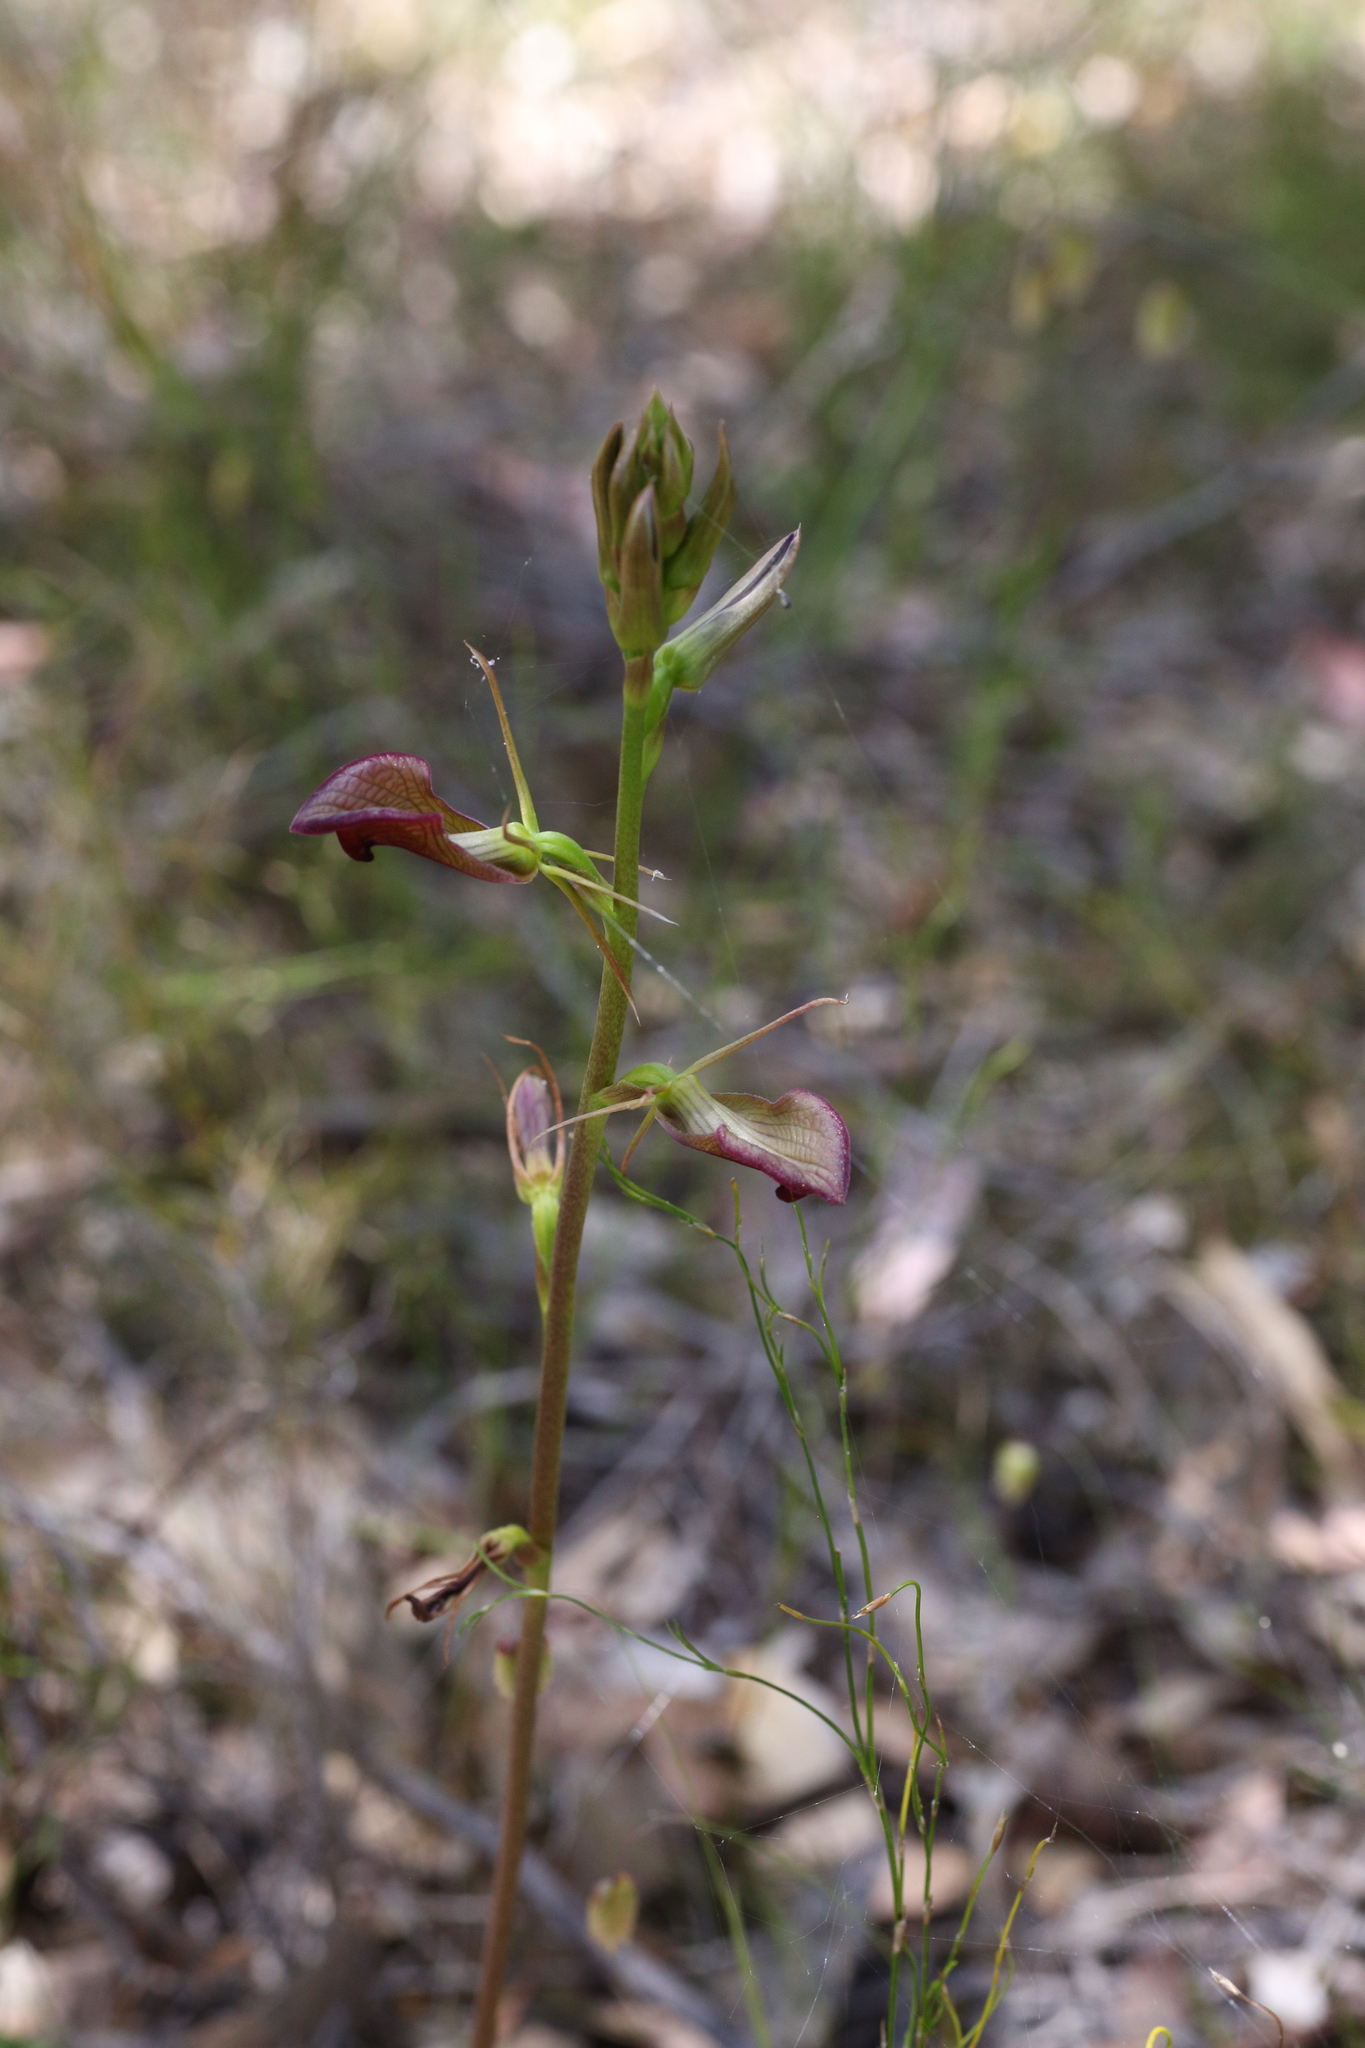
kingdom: Plantae
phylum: Tracheophyta
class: Liliopsida
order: Asparagales
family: Orchidaceae
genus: Cryptostylis
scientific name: Cryptostylis ovata
